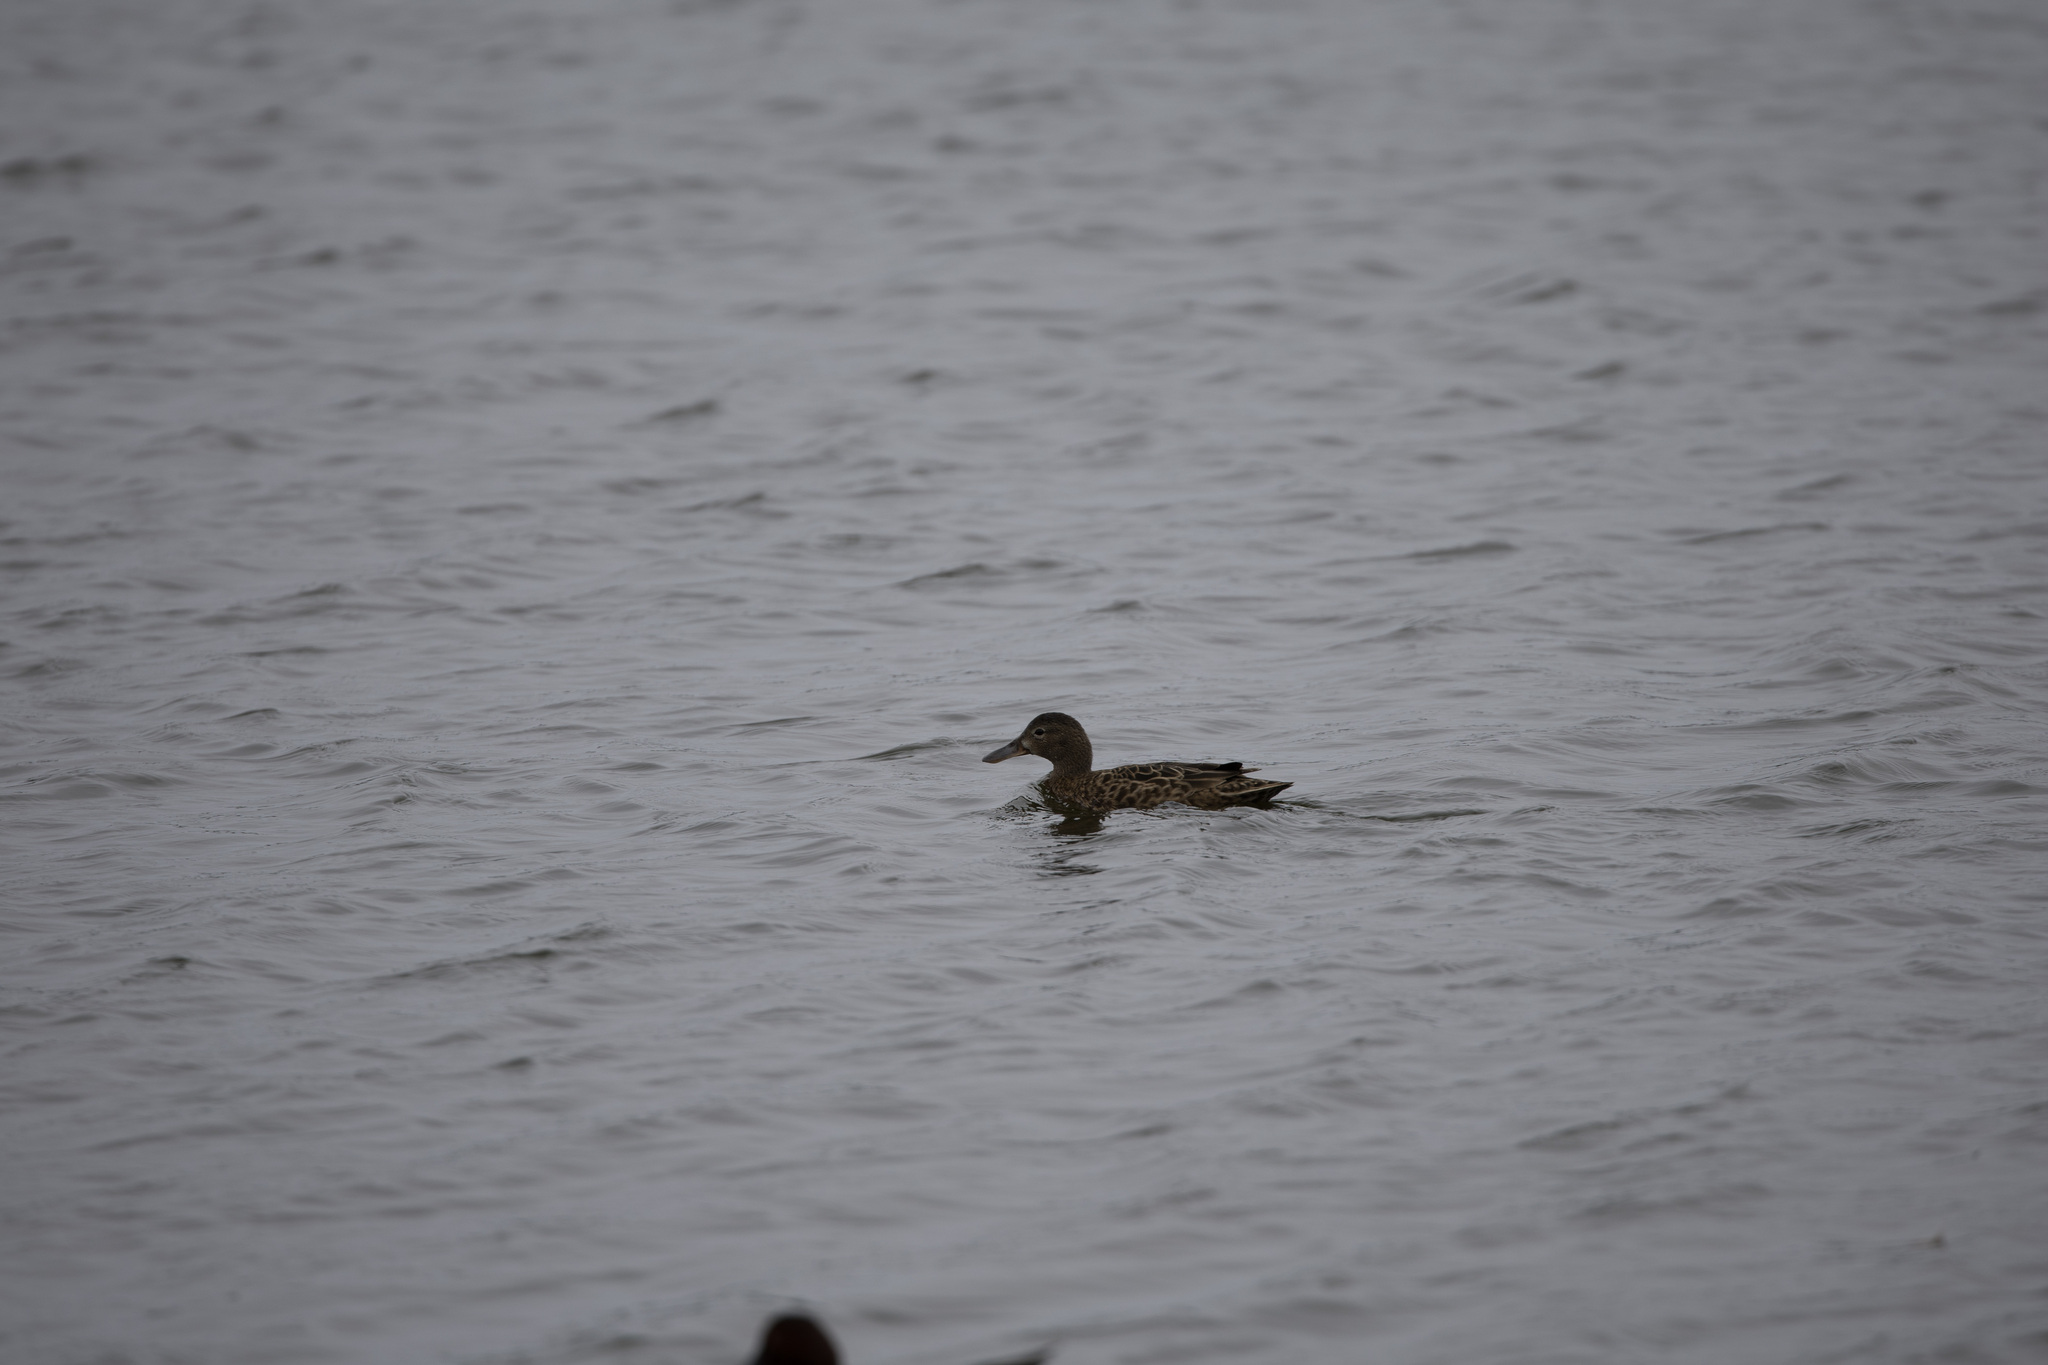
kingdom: Animalia
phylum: Chordata
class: Aves
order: Anseriformes
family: Anatidae
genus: Spatula
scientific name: Spatula cyanoptera
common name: Cinnamon teal
